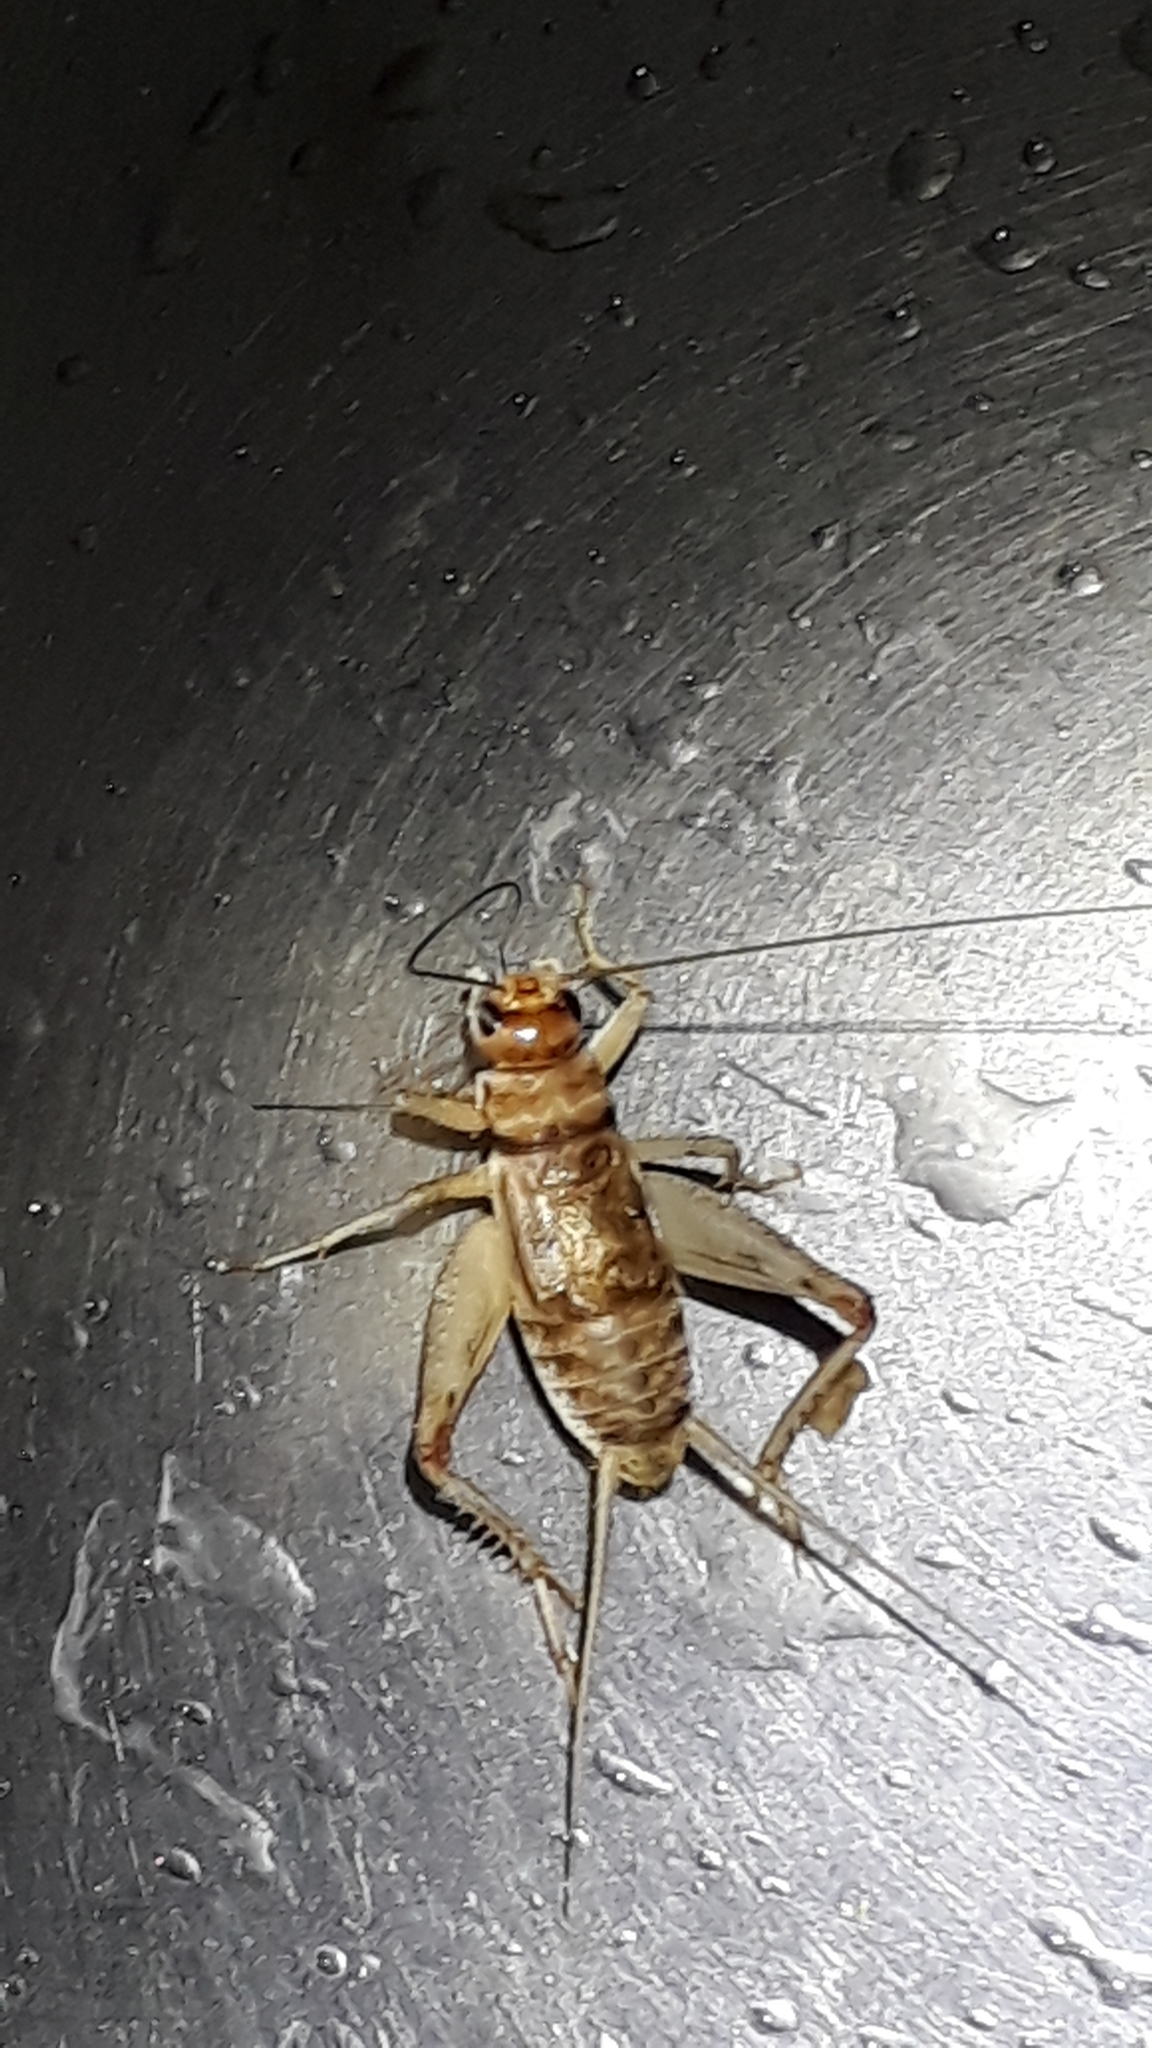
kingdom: Animalia
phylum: Arthropoda
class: Insecta
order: Orthoptera
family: Gryllidae
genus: Gryllodes
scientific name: Gryllodes sigillatus
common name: Tropical house cricket
